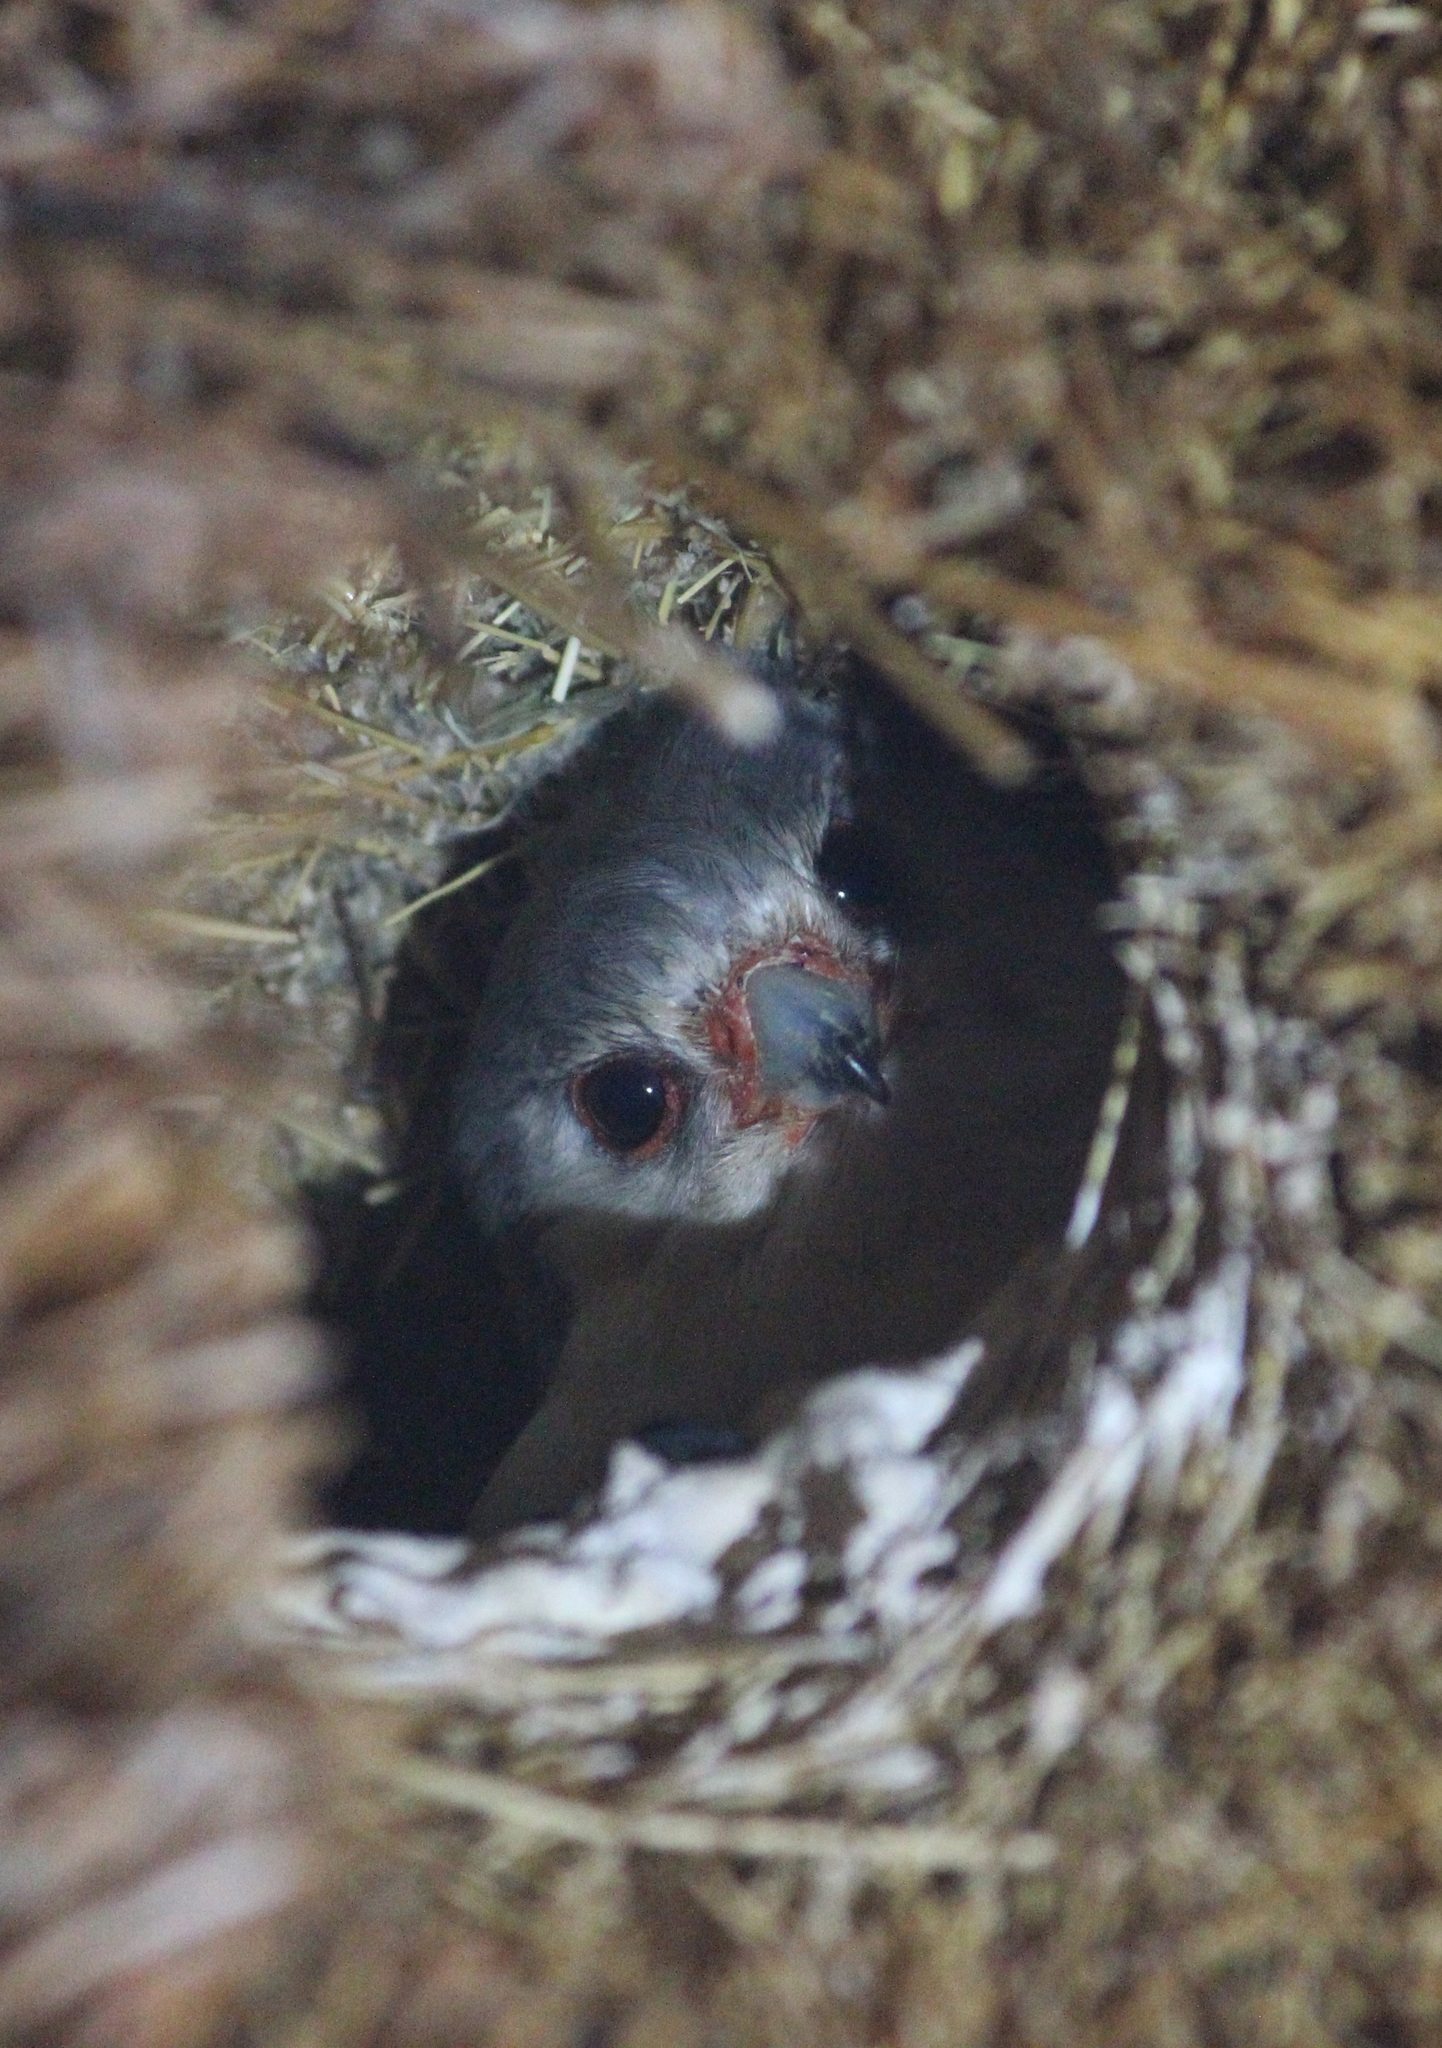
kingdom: Animalia
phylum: Chordata
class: Aves
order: Falconiformes
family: Falconidae
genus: Polihierax
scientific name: Polihierax semitorquatus
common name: Pygmy falcon
